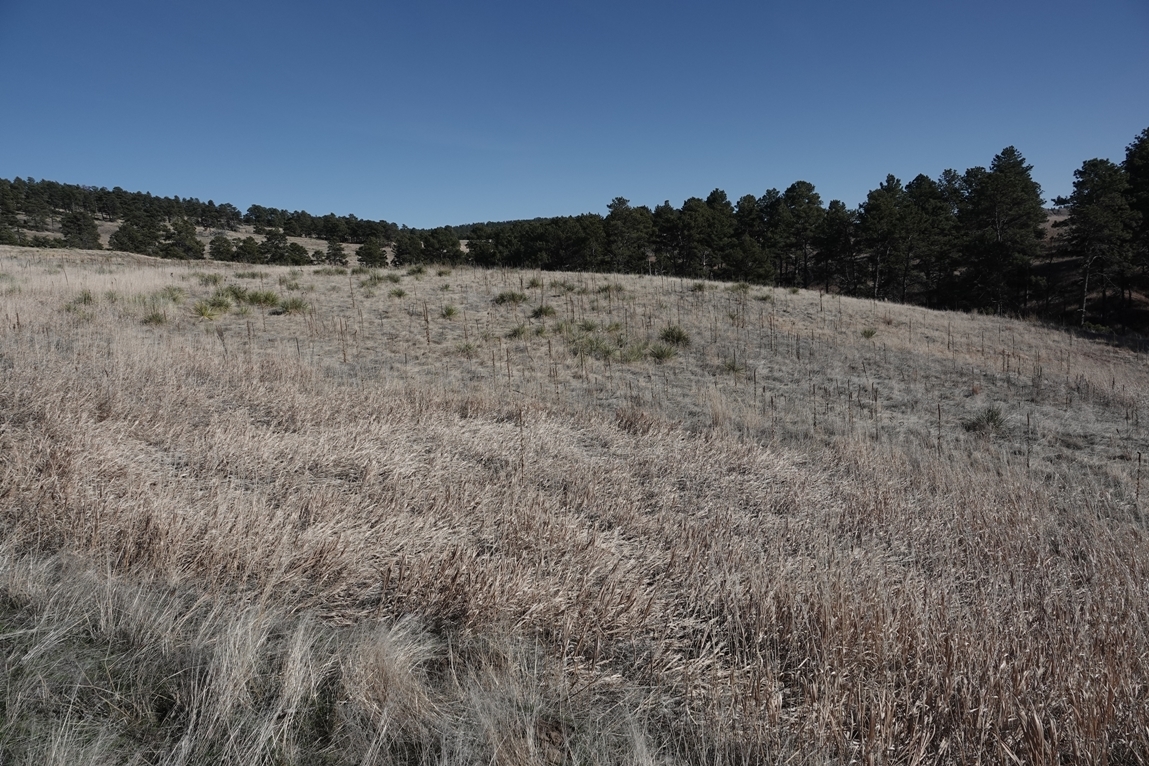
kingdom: Plantae
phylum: Tracheophyta
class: Magnoliopsida
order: Lamiales
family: Scrophulariaceae
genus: Verbascum
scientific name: Verbascum thapsus
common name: Common mullein
